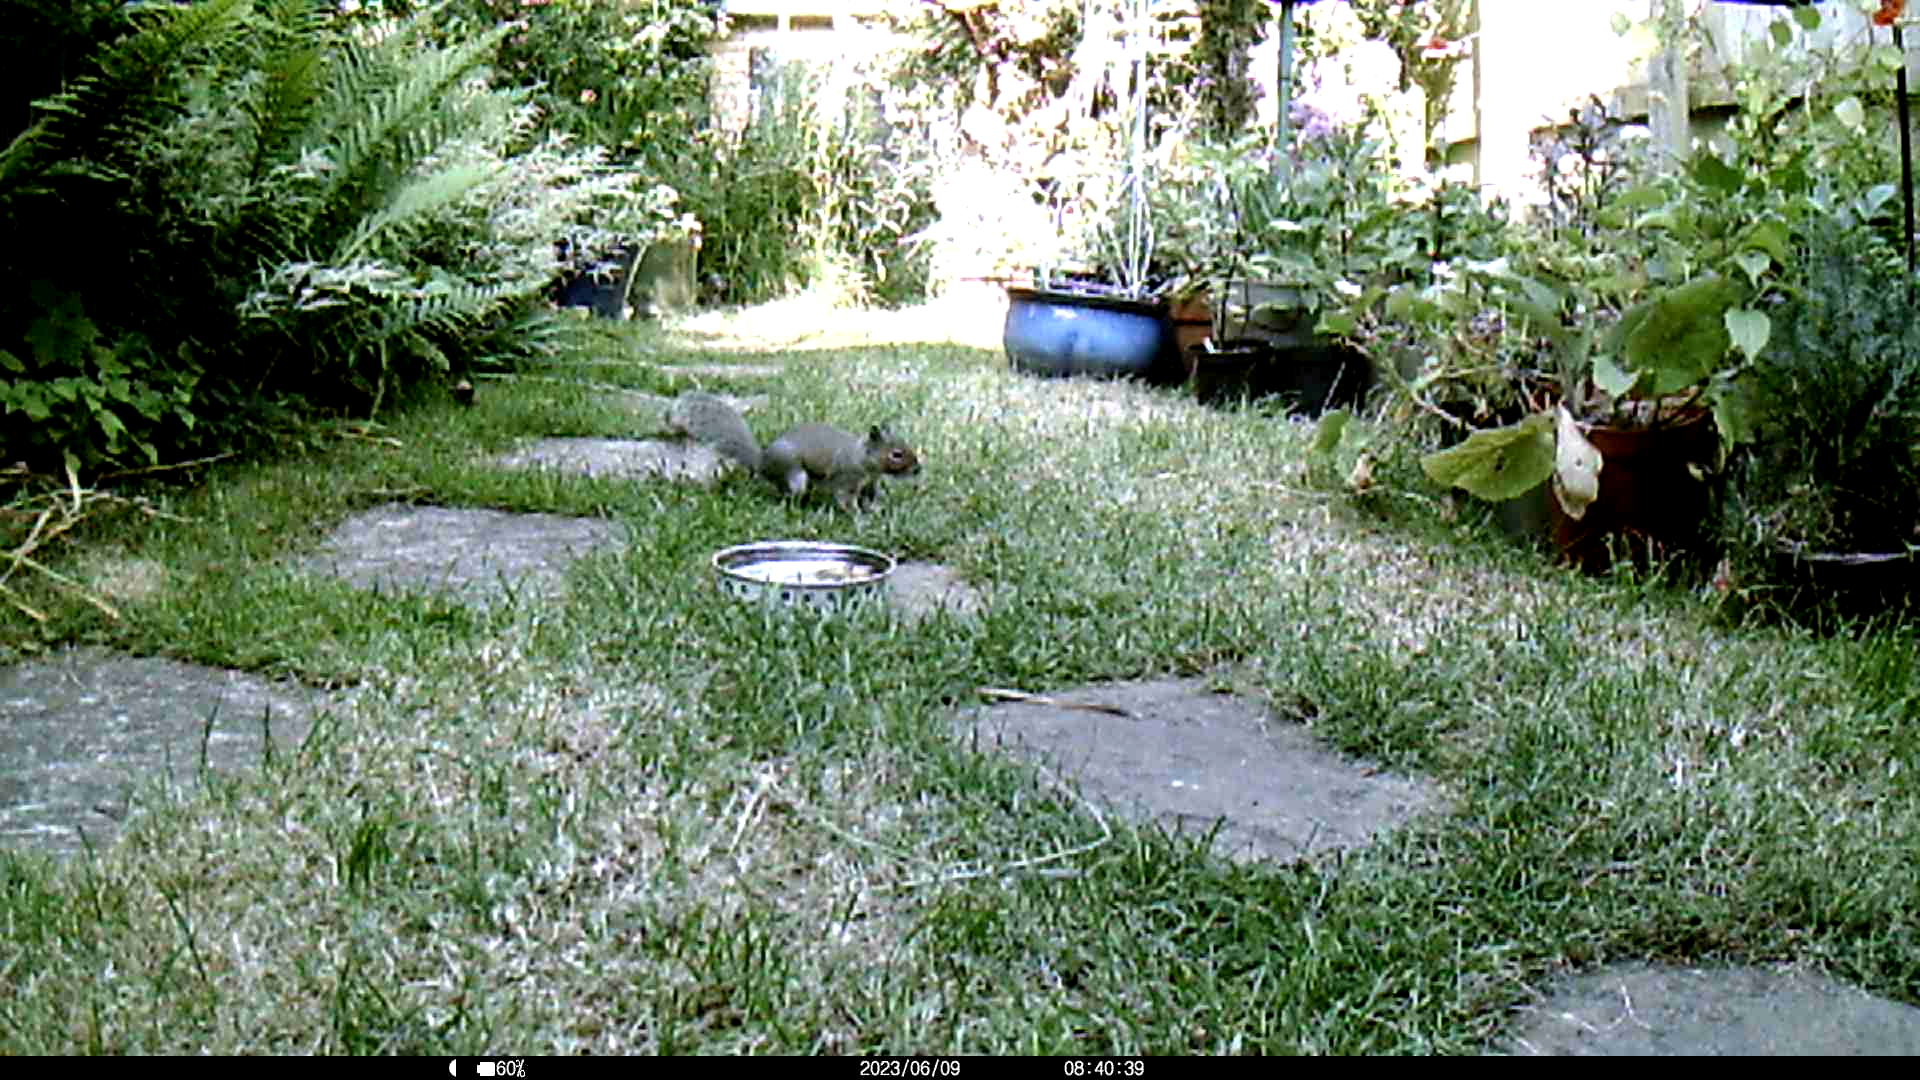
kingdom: Animalia
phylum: Chordata
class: Mammalia
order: Rodentia
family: Sciuridae
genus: Sciurus
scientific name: Sciurus carolinensis
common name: Eastern gray squirrel
